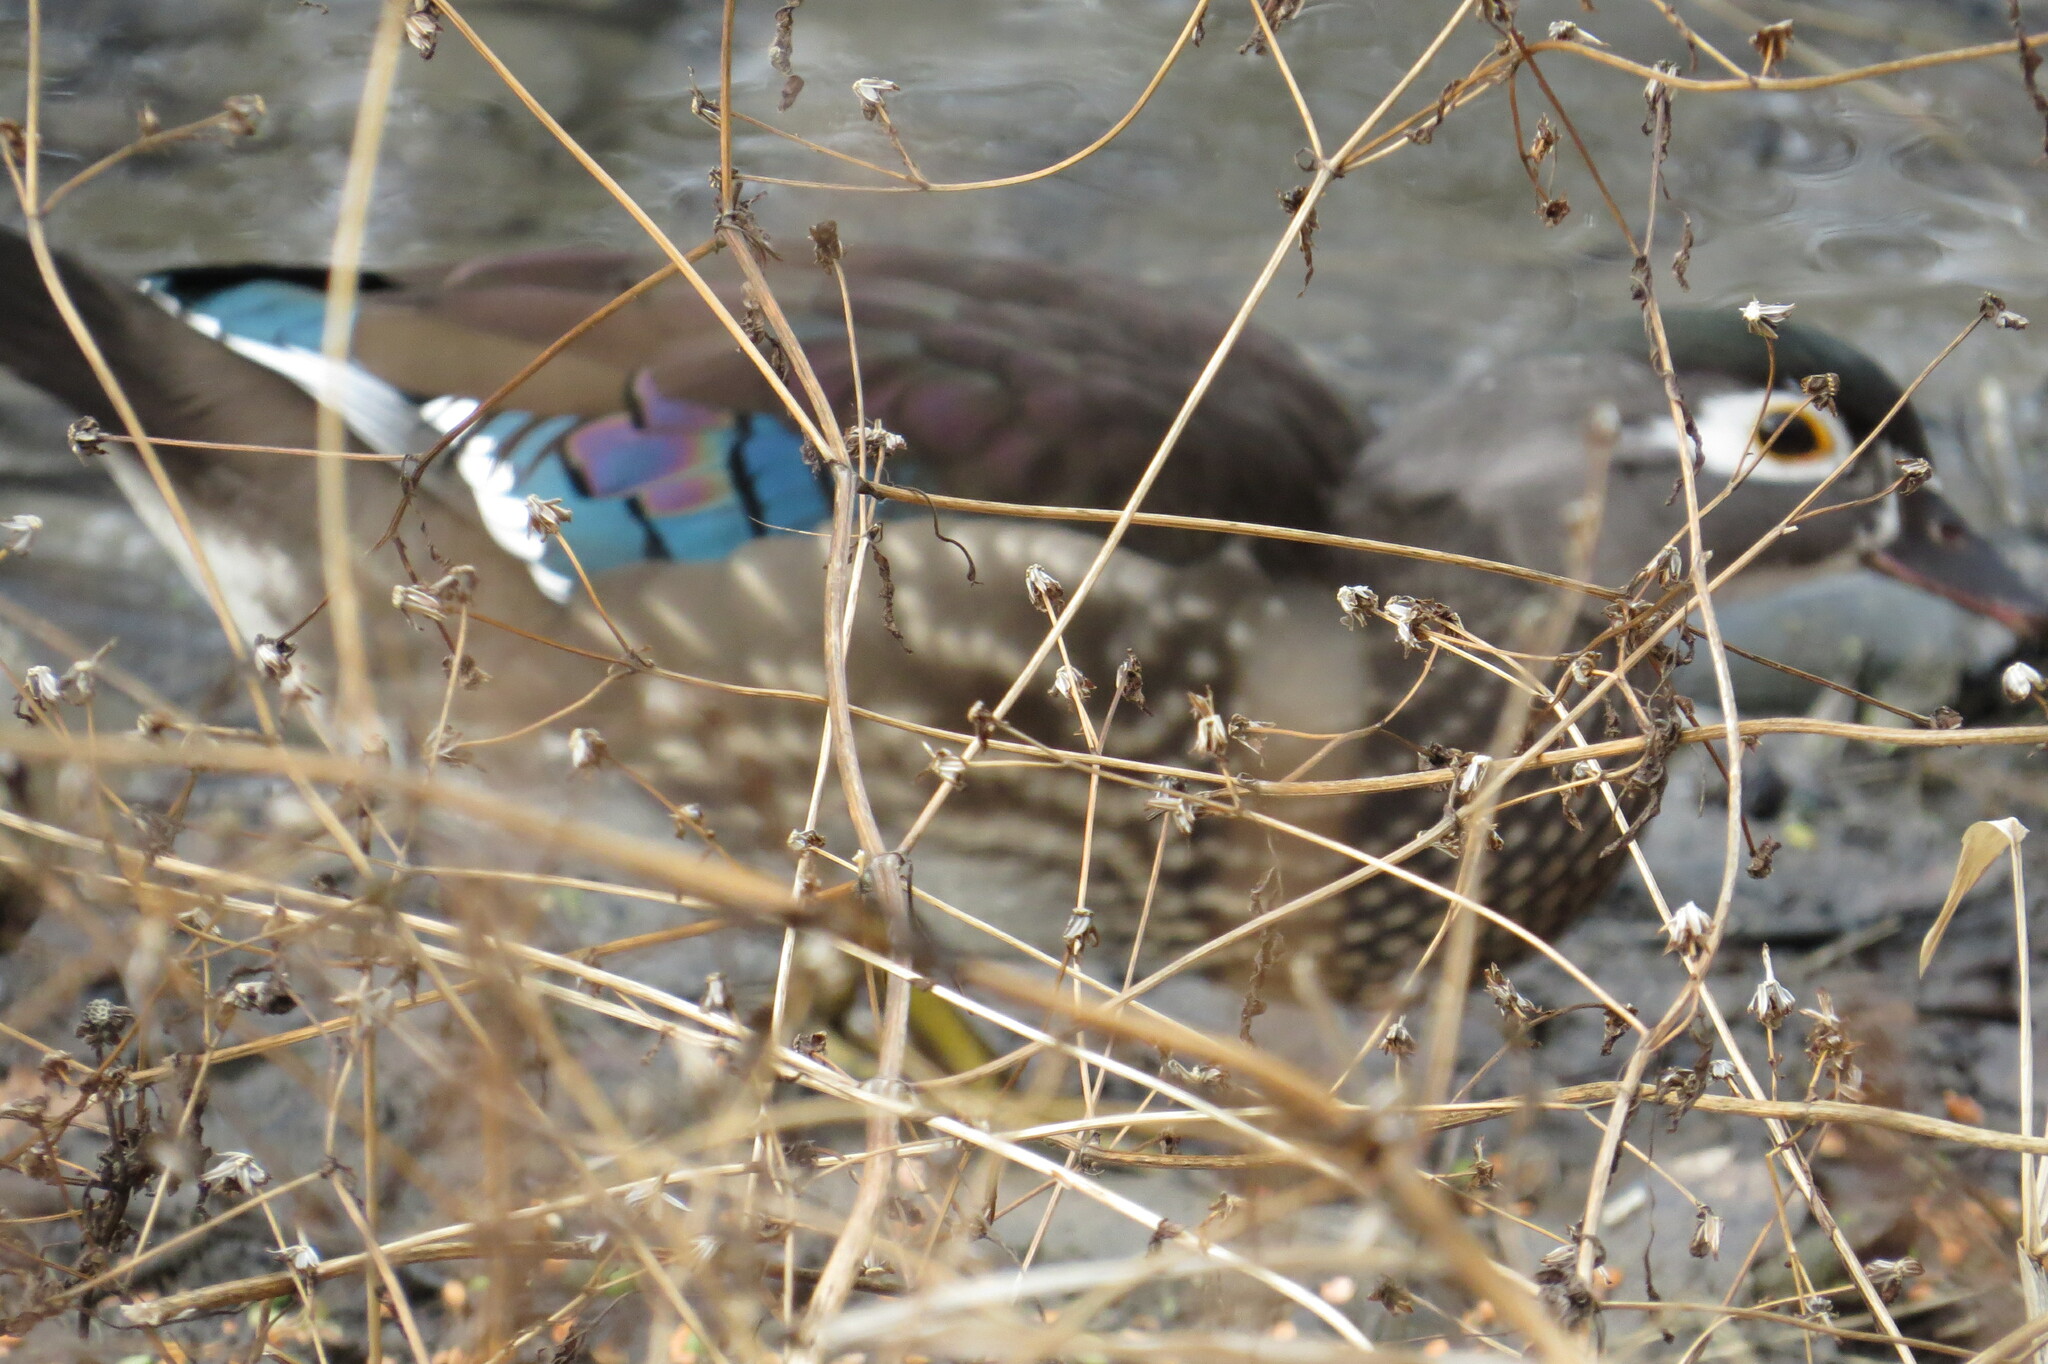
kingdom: Animalia
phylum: Chordata
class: Aves
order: Anseriformes
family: Anatidae
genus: Aix
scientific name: Aix sponsa
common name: Wood duck
